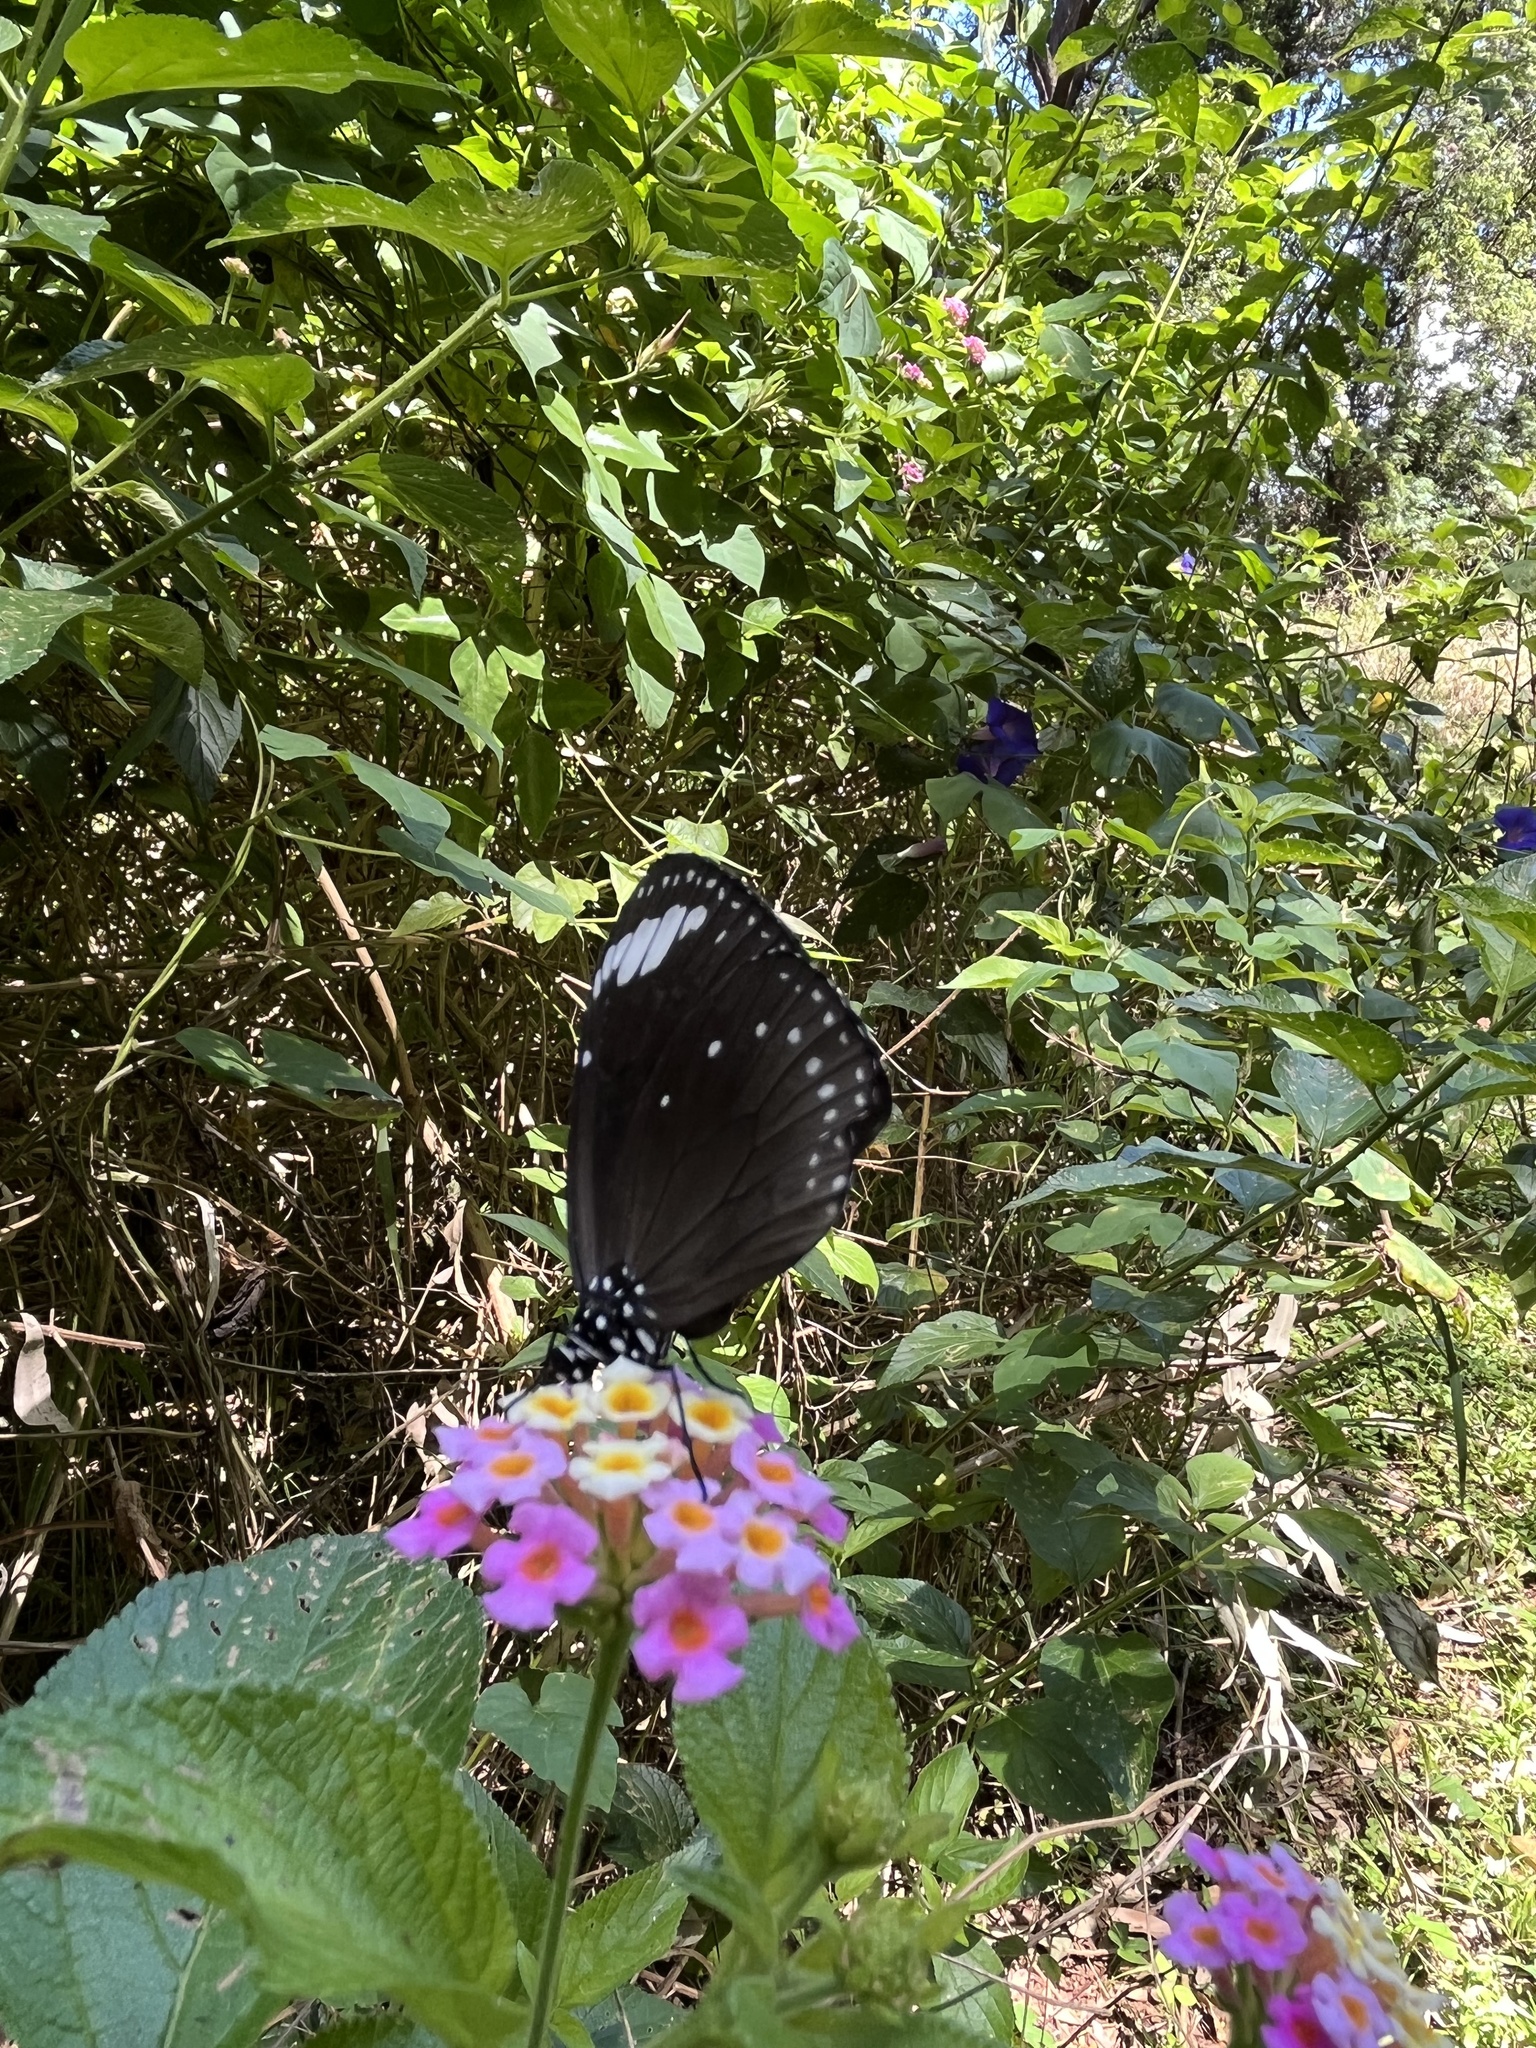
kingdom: Animalia
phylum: Arthropoda
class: Insecta
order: Lepidoptera
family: Nymphalidae
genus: Euploea
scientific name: Euploea tulliolus
